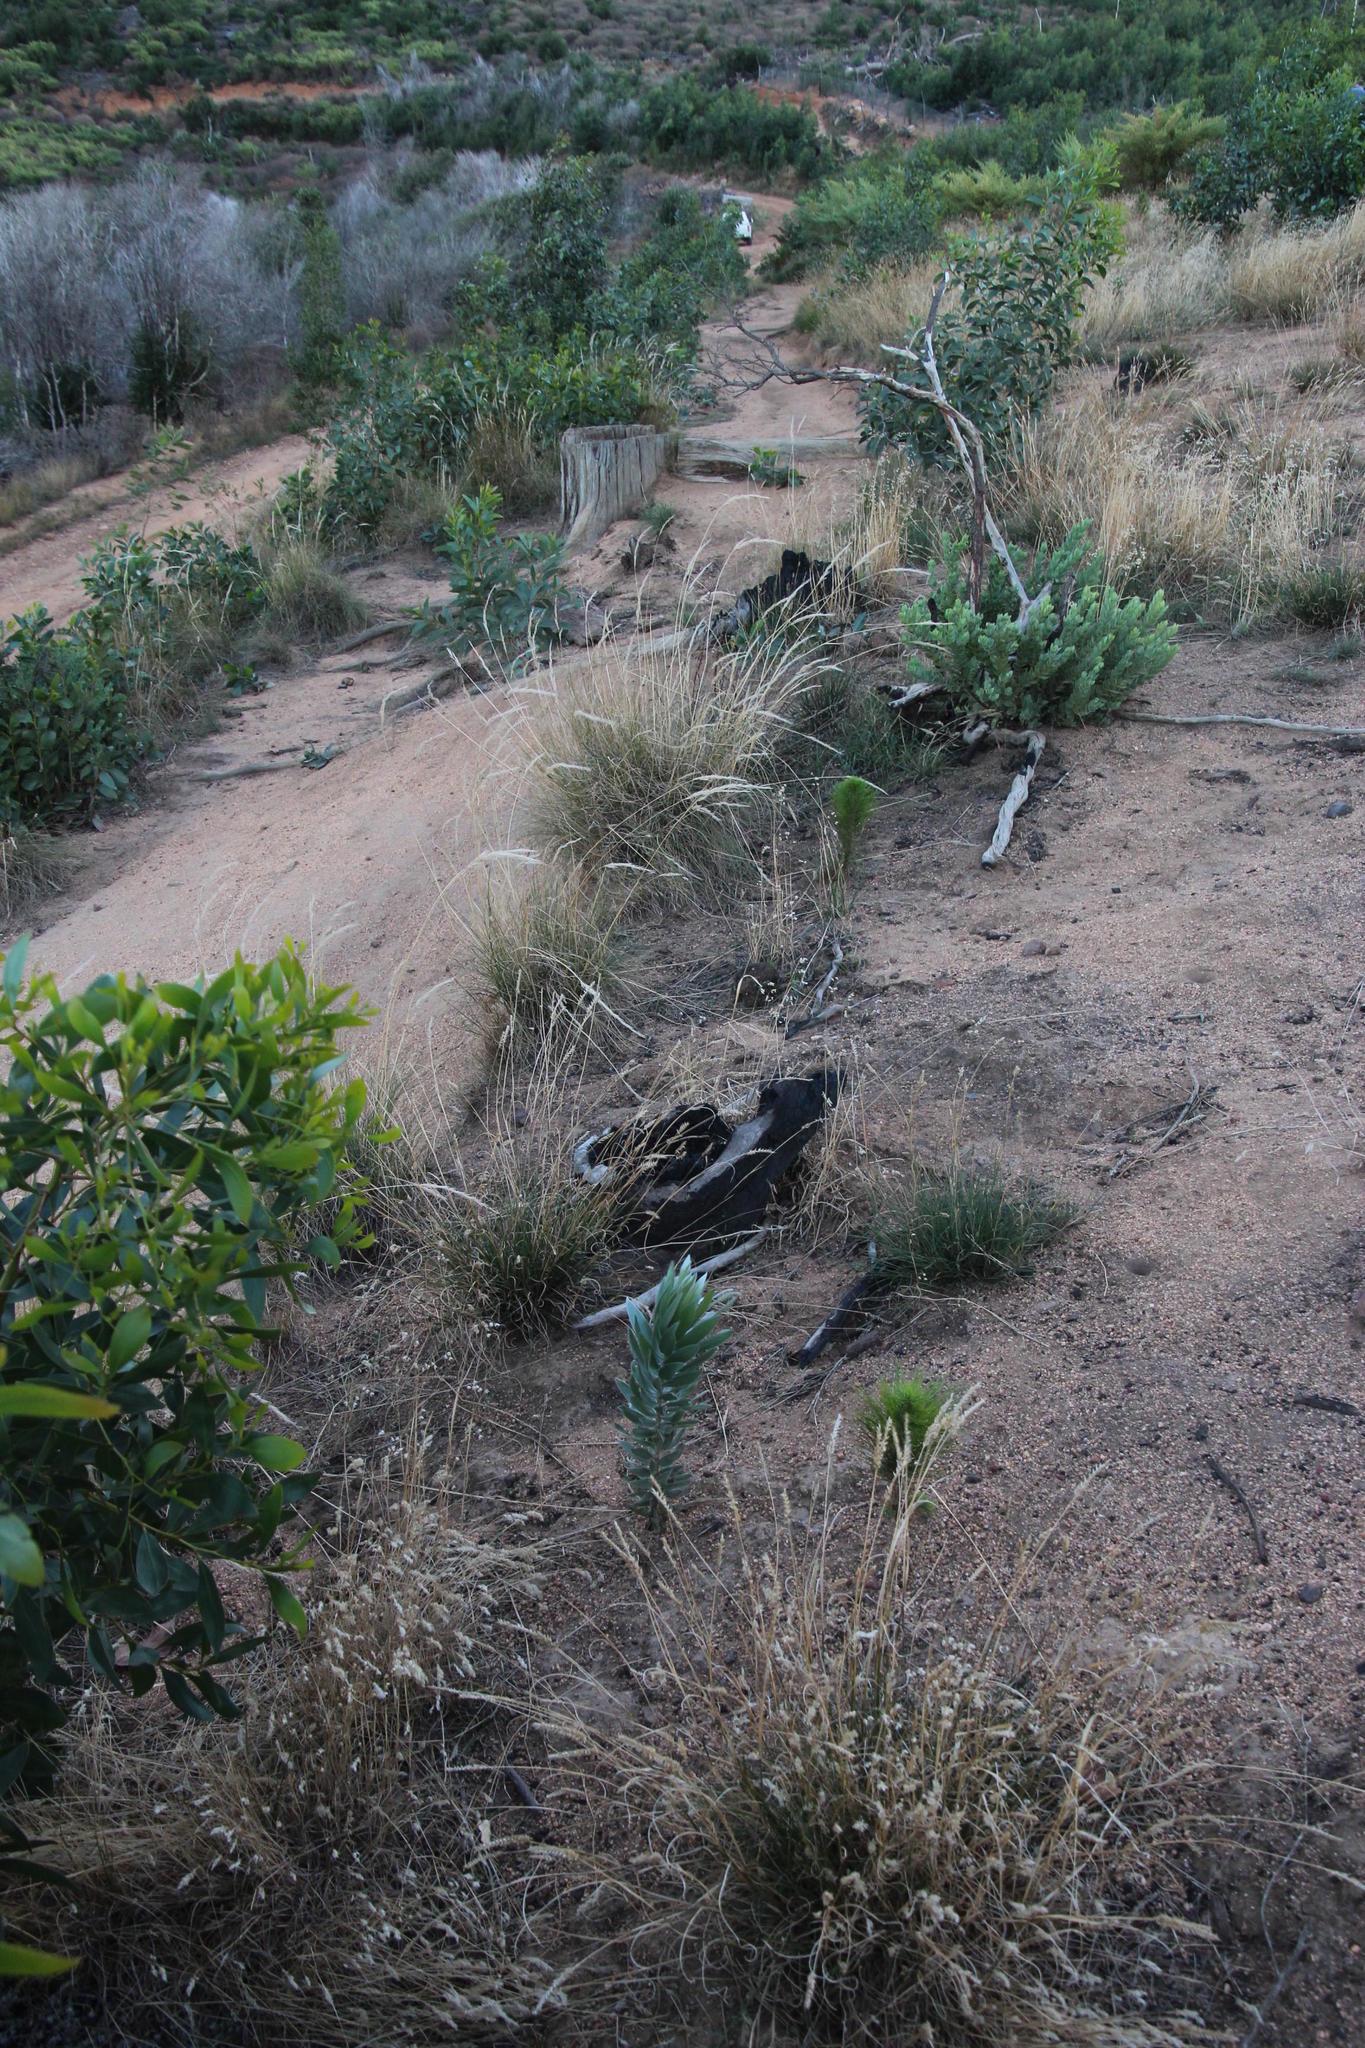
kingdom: Plantae
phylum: Tracheophyta
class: Magnoliopsida
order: Proteales
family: Proteaceae
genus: Leucadendron
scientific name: Leucadendron argenteum
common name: Cape silver tree
